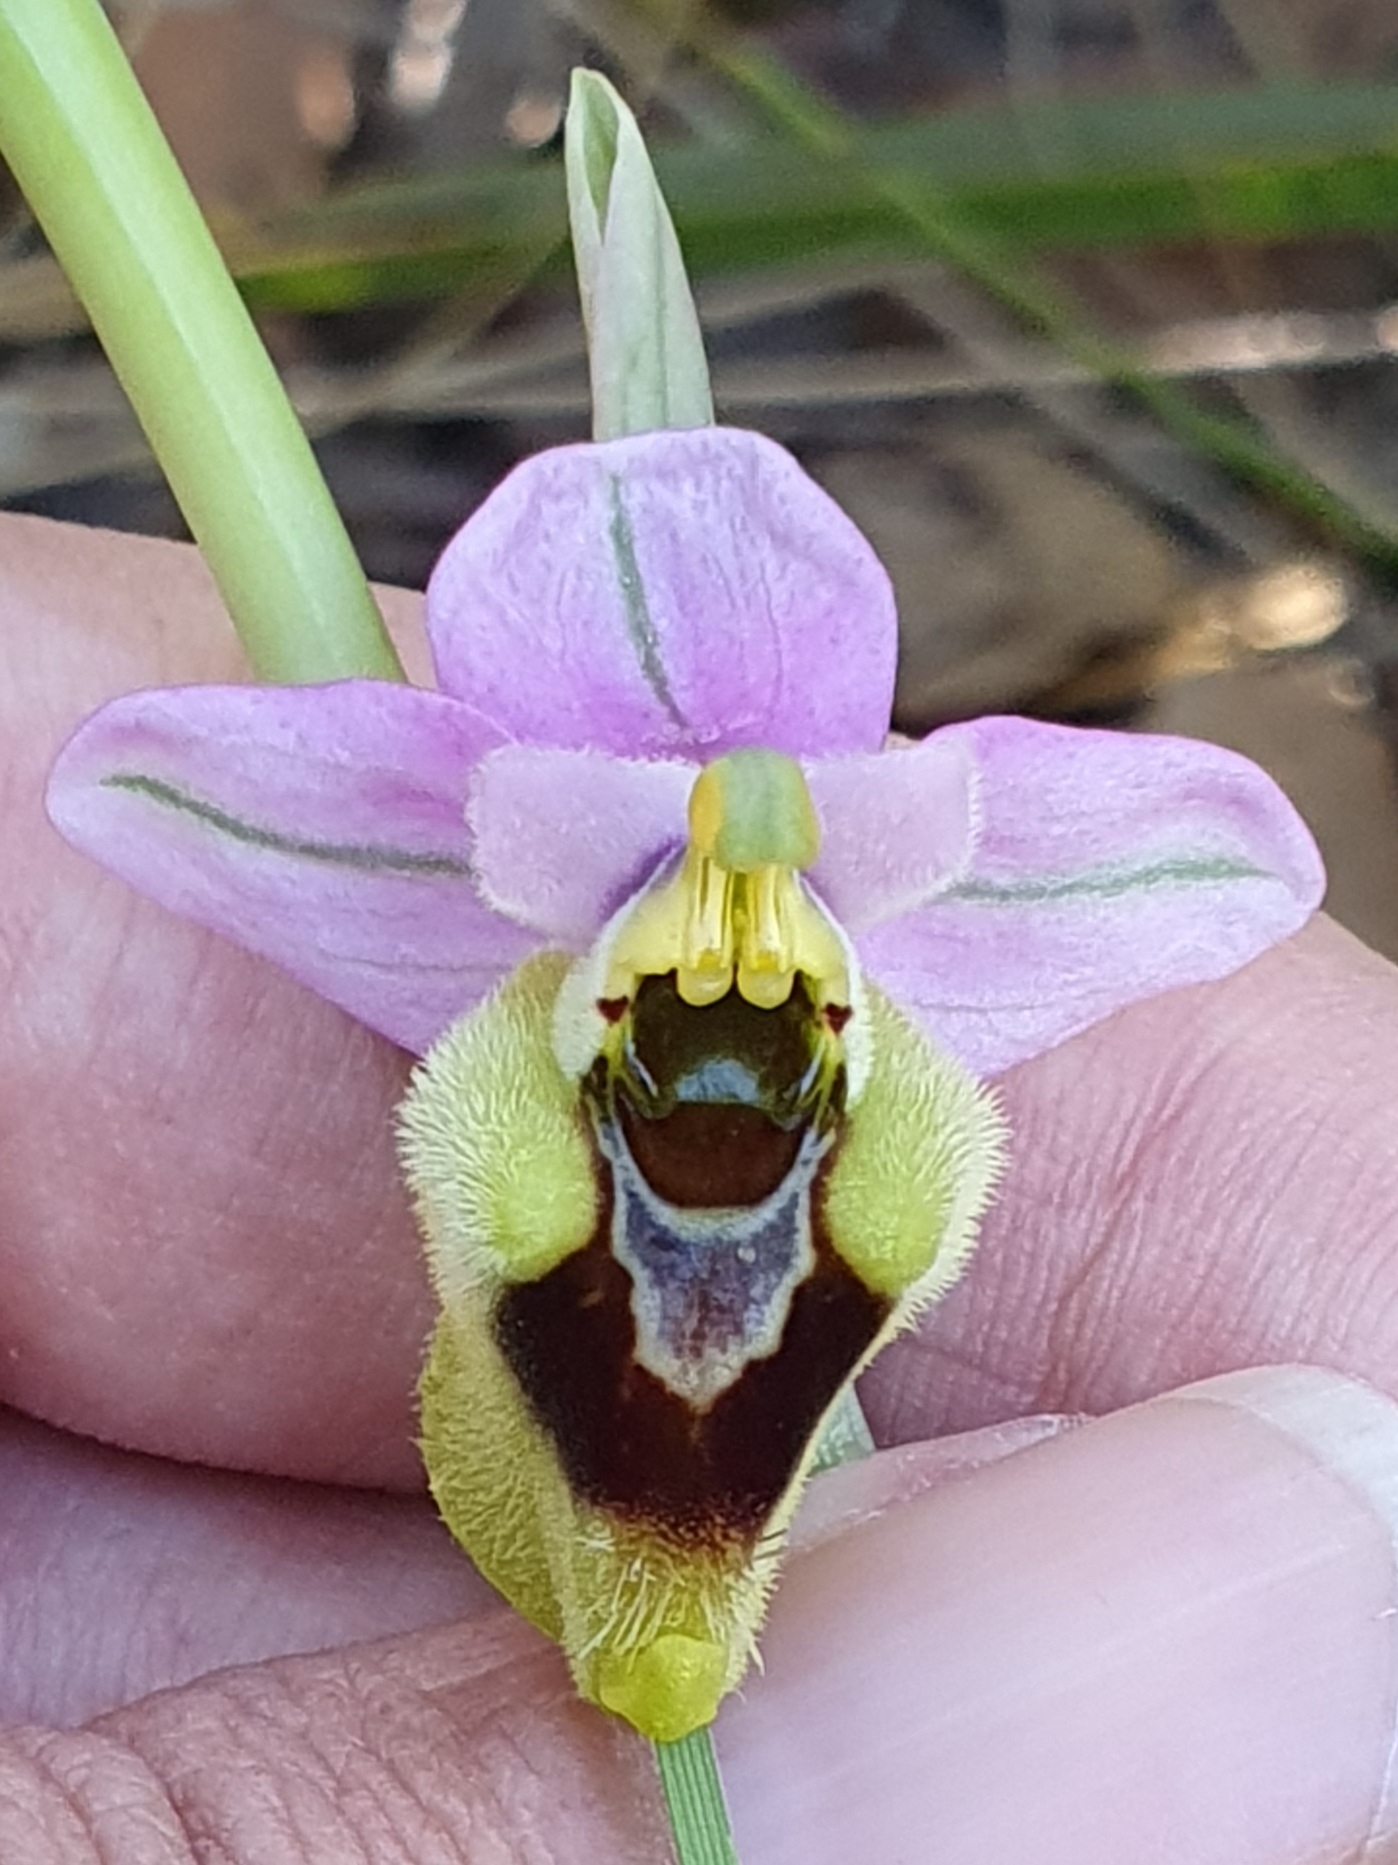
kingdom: Plantae
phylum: Tracheophyta
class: Liliopsida
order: Asparagales
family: Orchidaceae
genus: Ophrys
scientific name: Ophrys tenthredinifera
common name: Sawfly orchid
